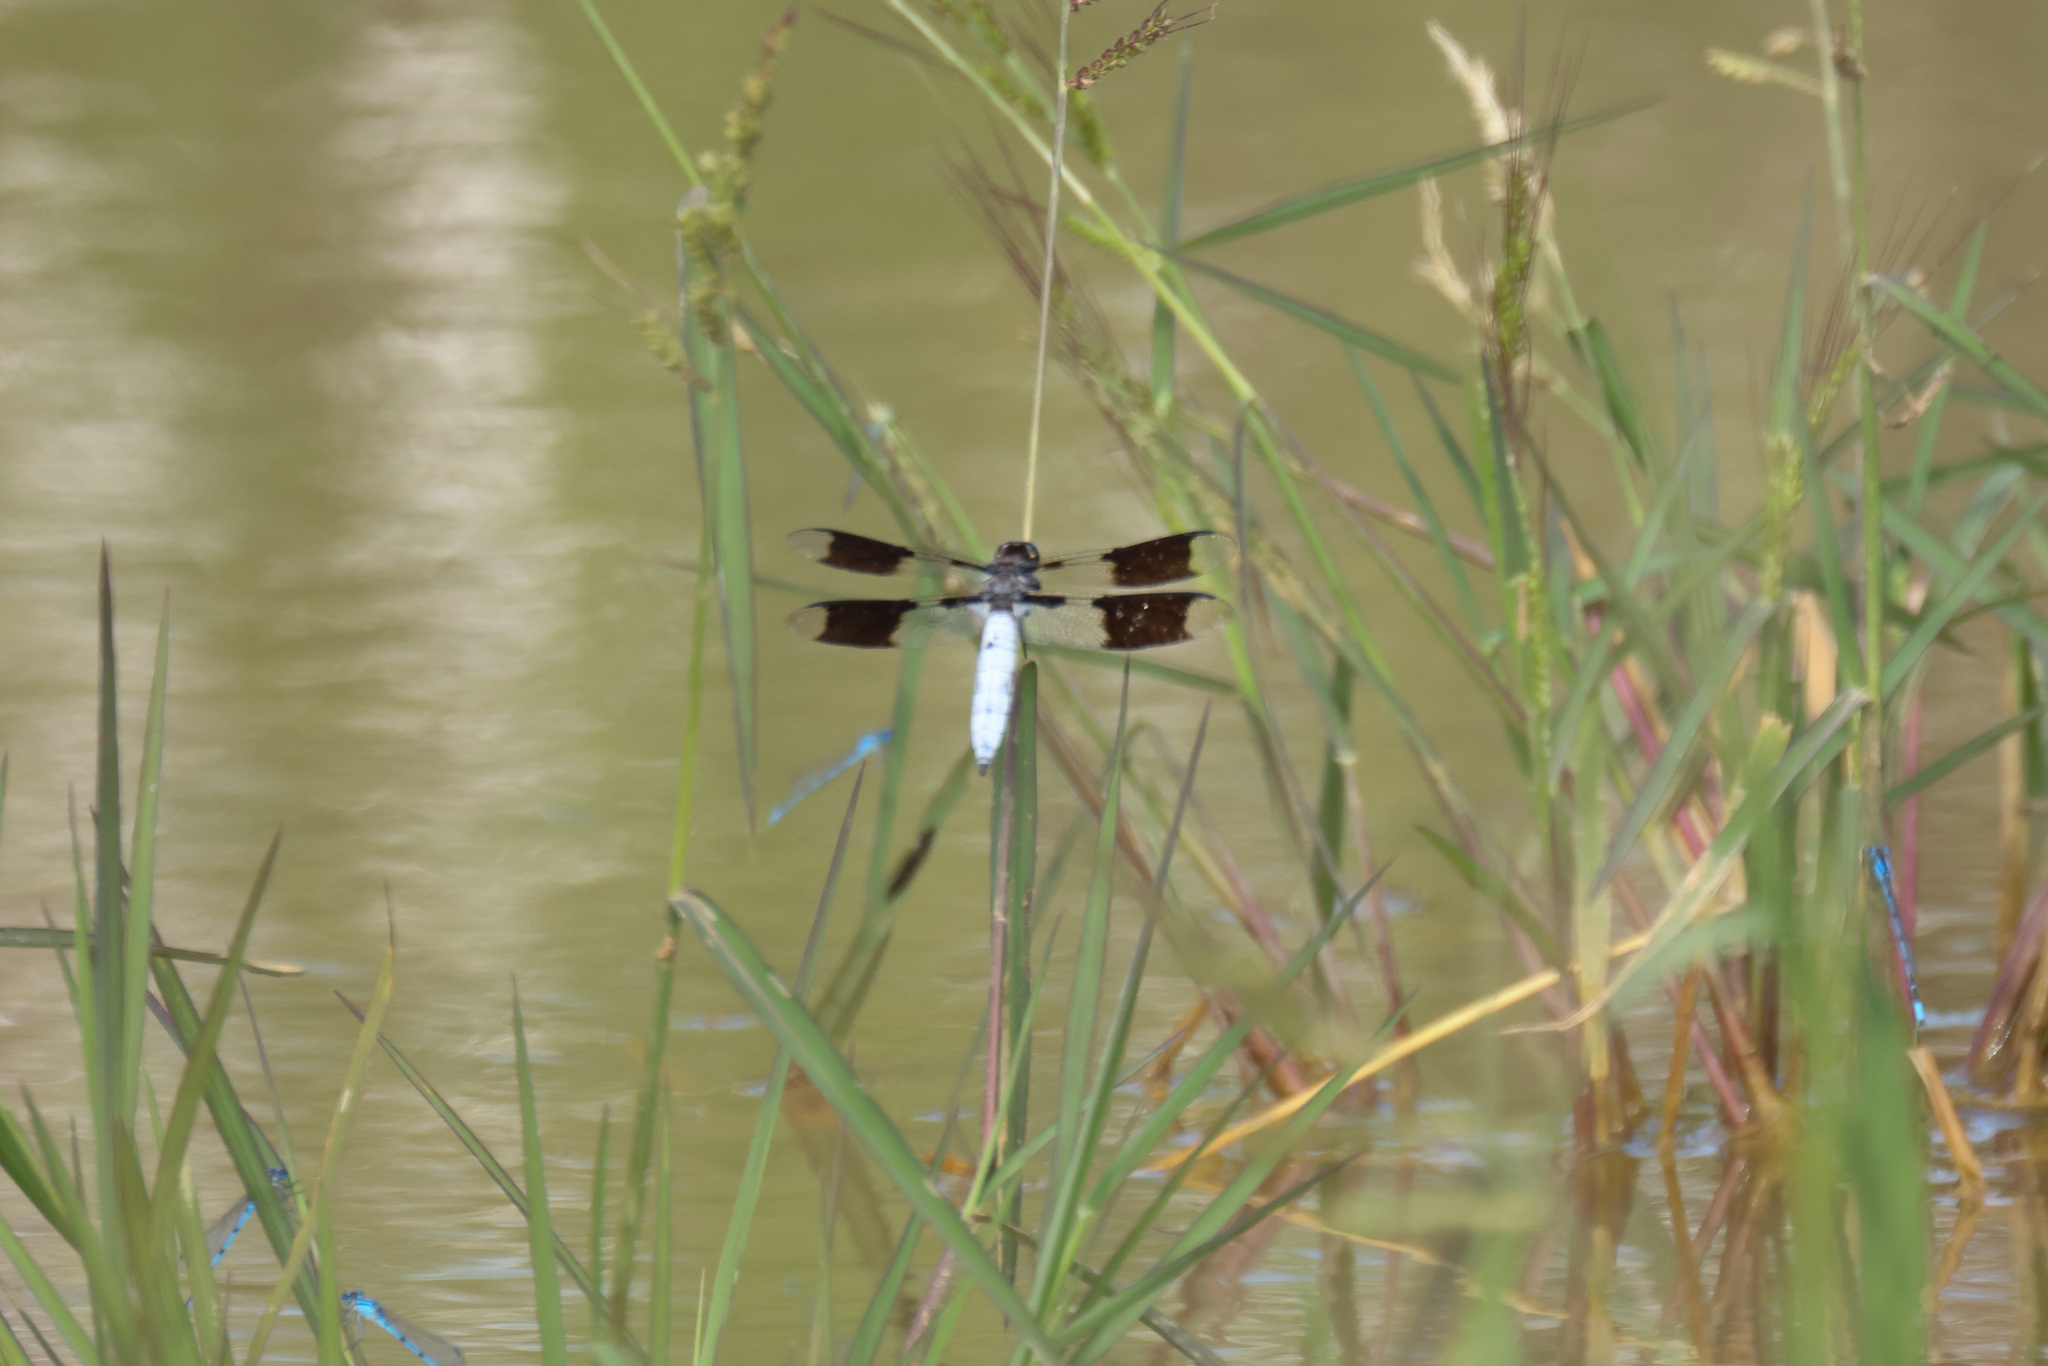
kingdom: Animalia
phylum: Arthropoda
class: Insecta
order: Odonata
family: Libellulidae
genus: Plathemis
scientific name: Plathemis lydia
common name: Common whitetail
